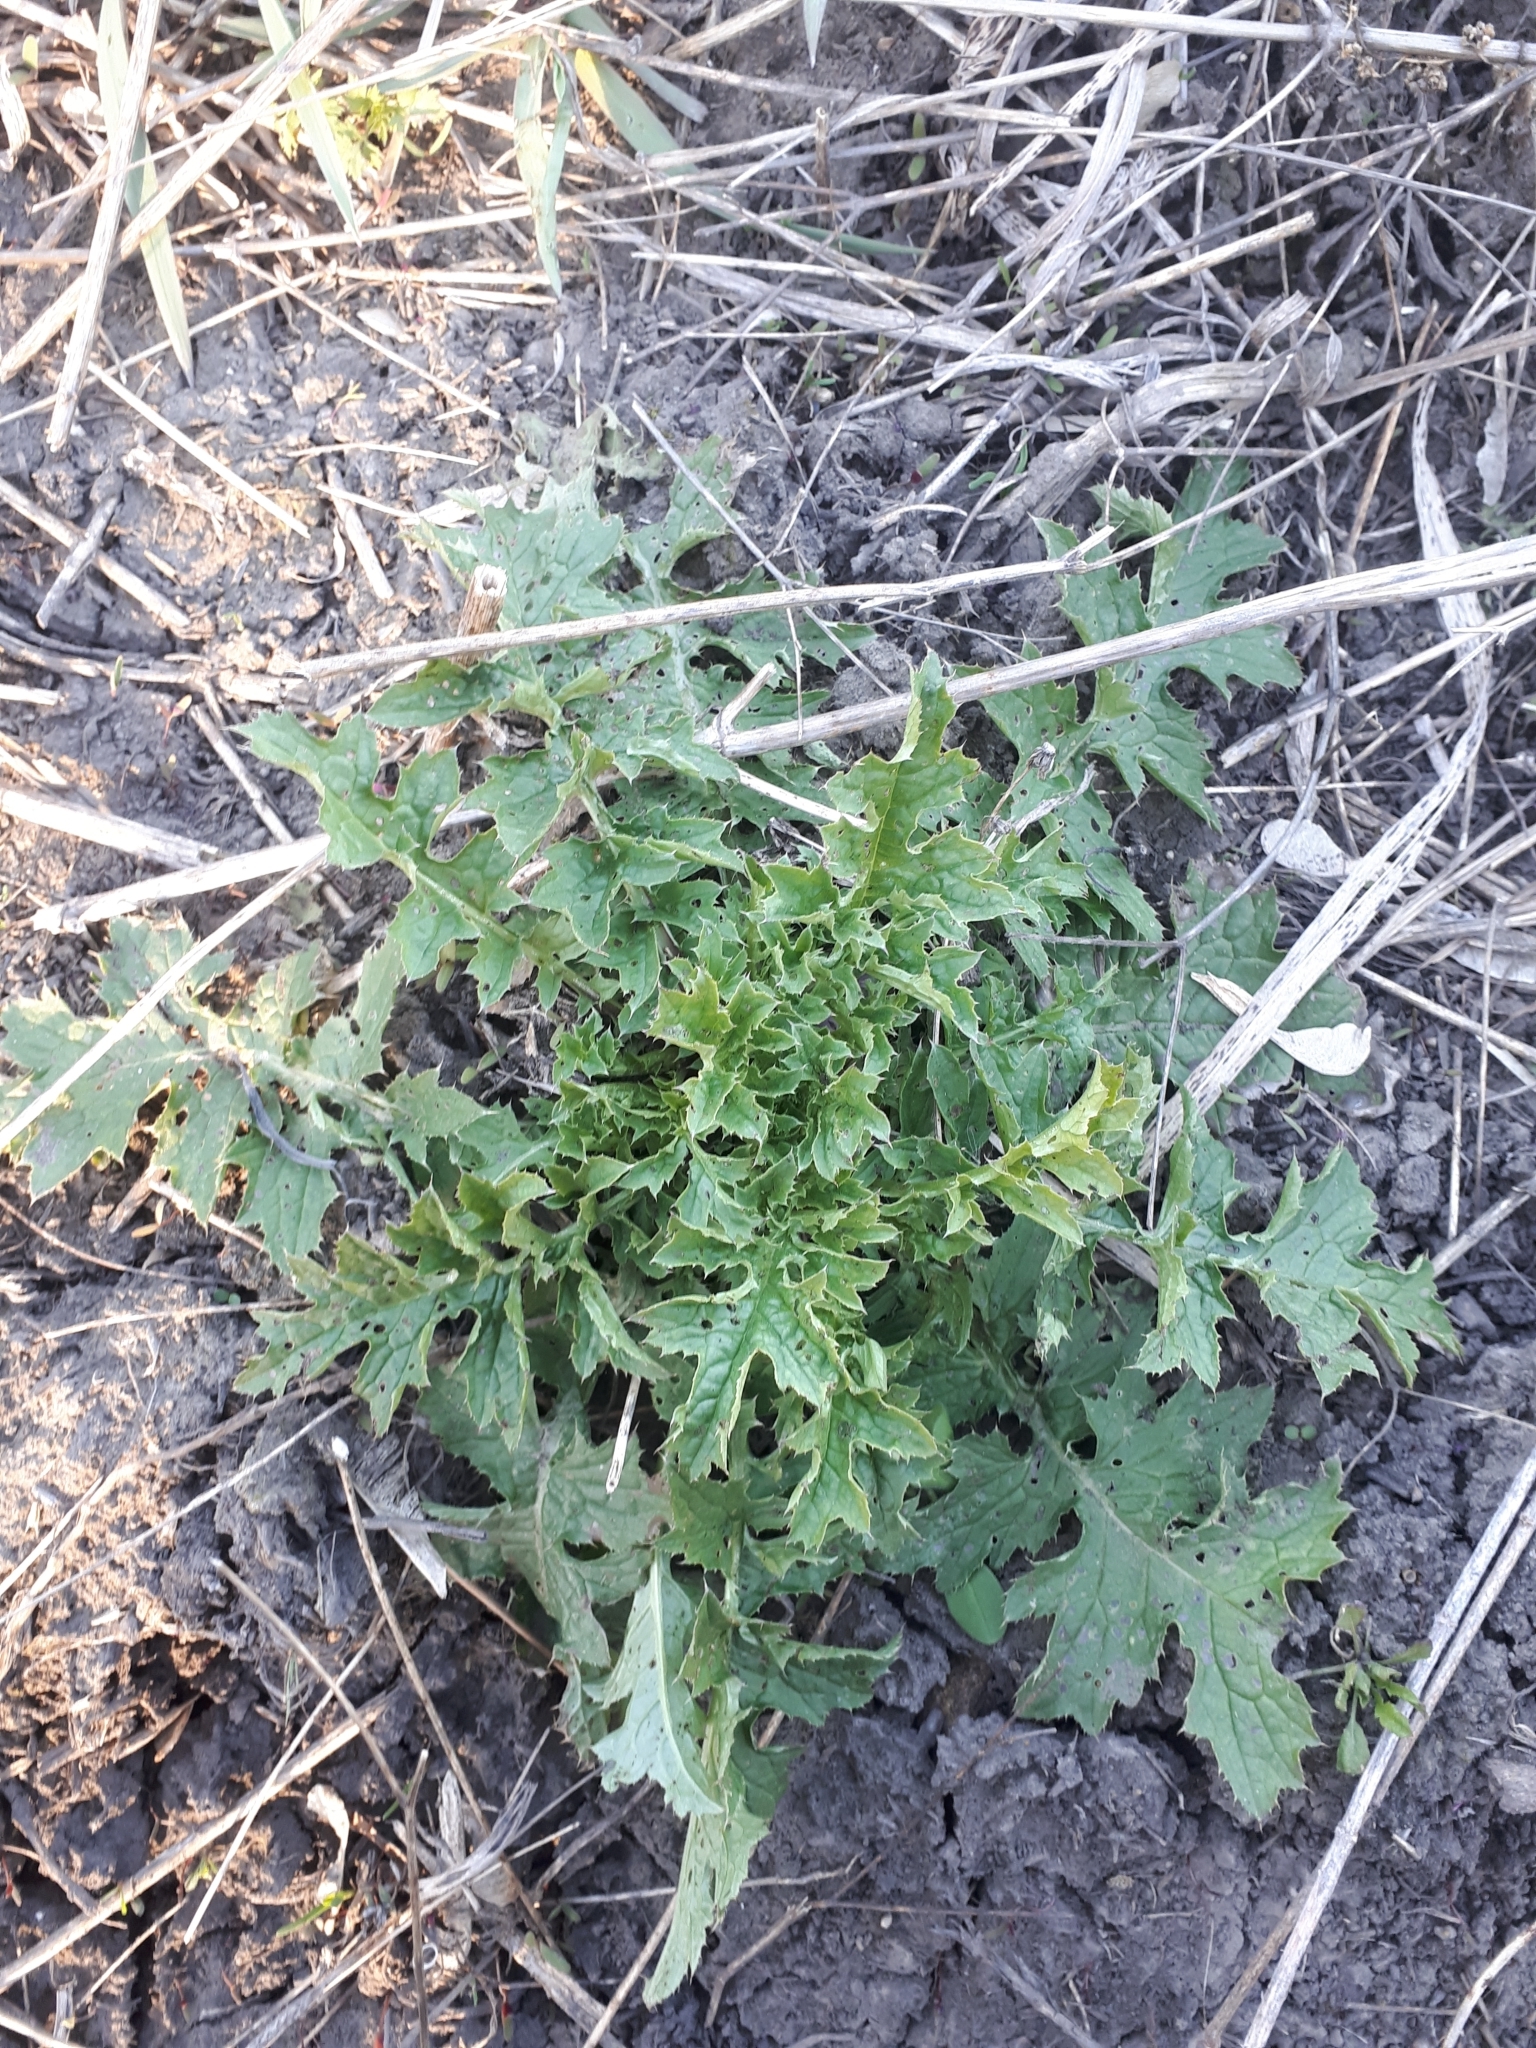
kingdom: Plantae
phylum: Tracheophyta
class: Magnoliopsida
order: Asterales
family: Asteraceae
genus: Carduus
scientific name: Carduus crispus
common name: Welted thistle
